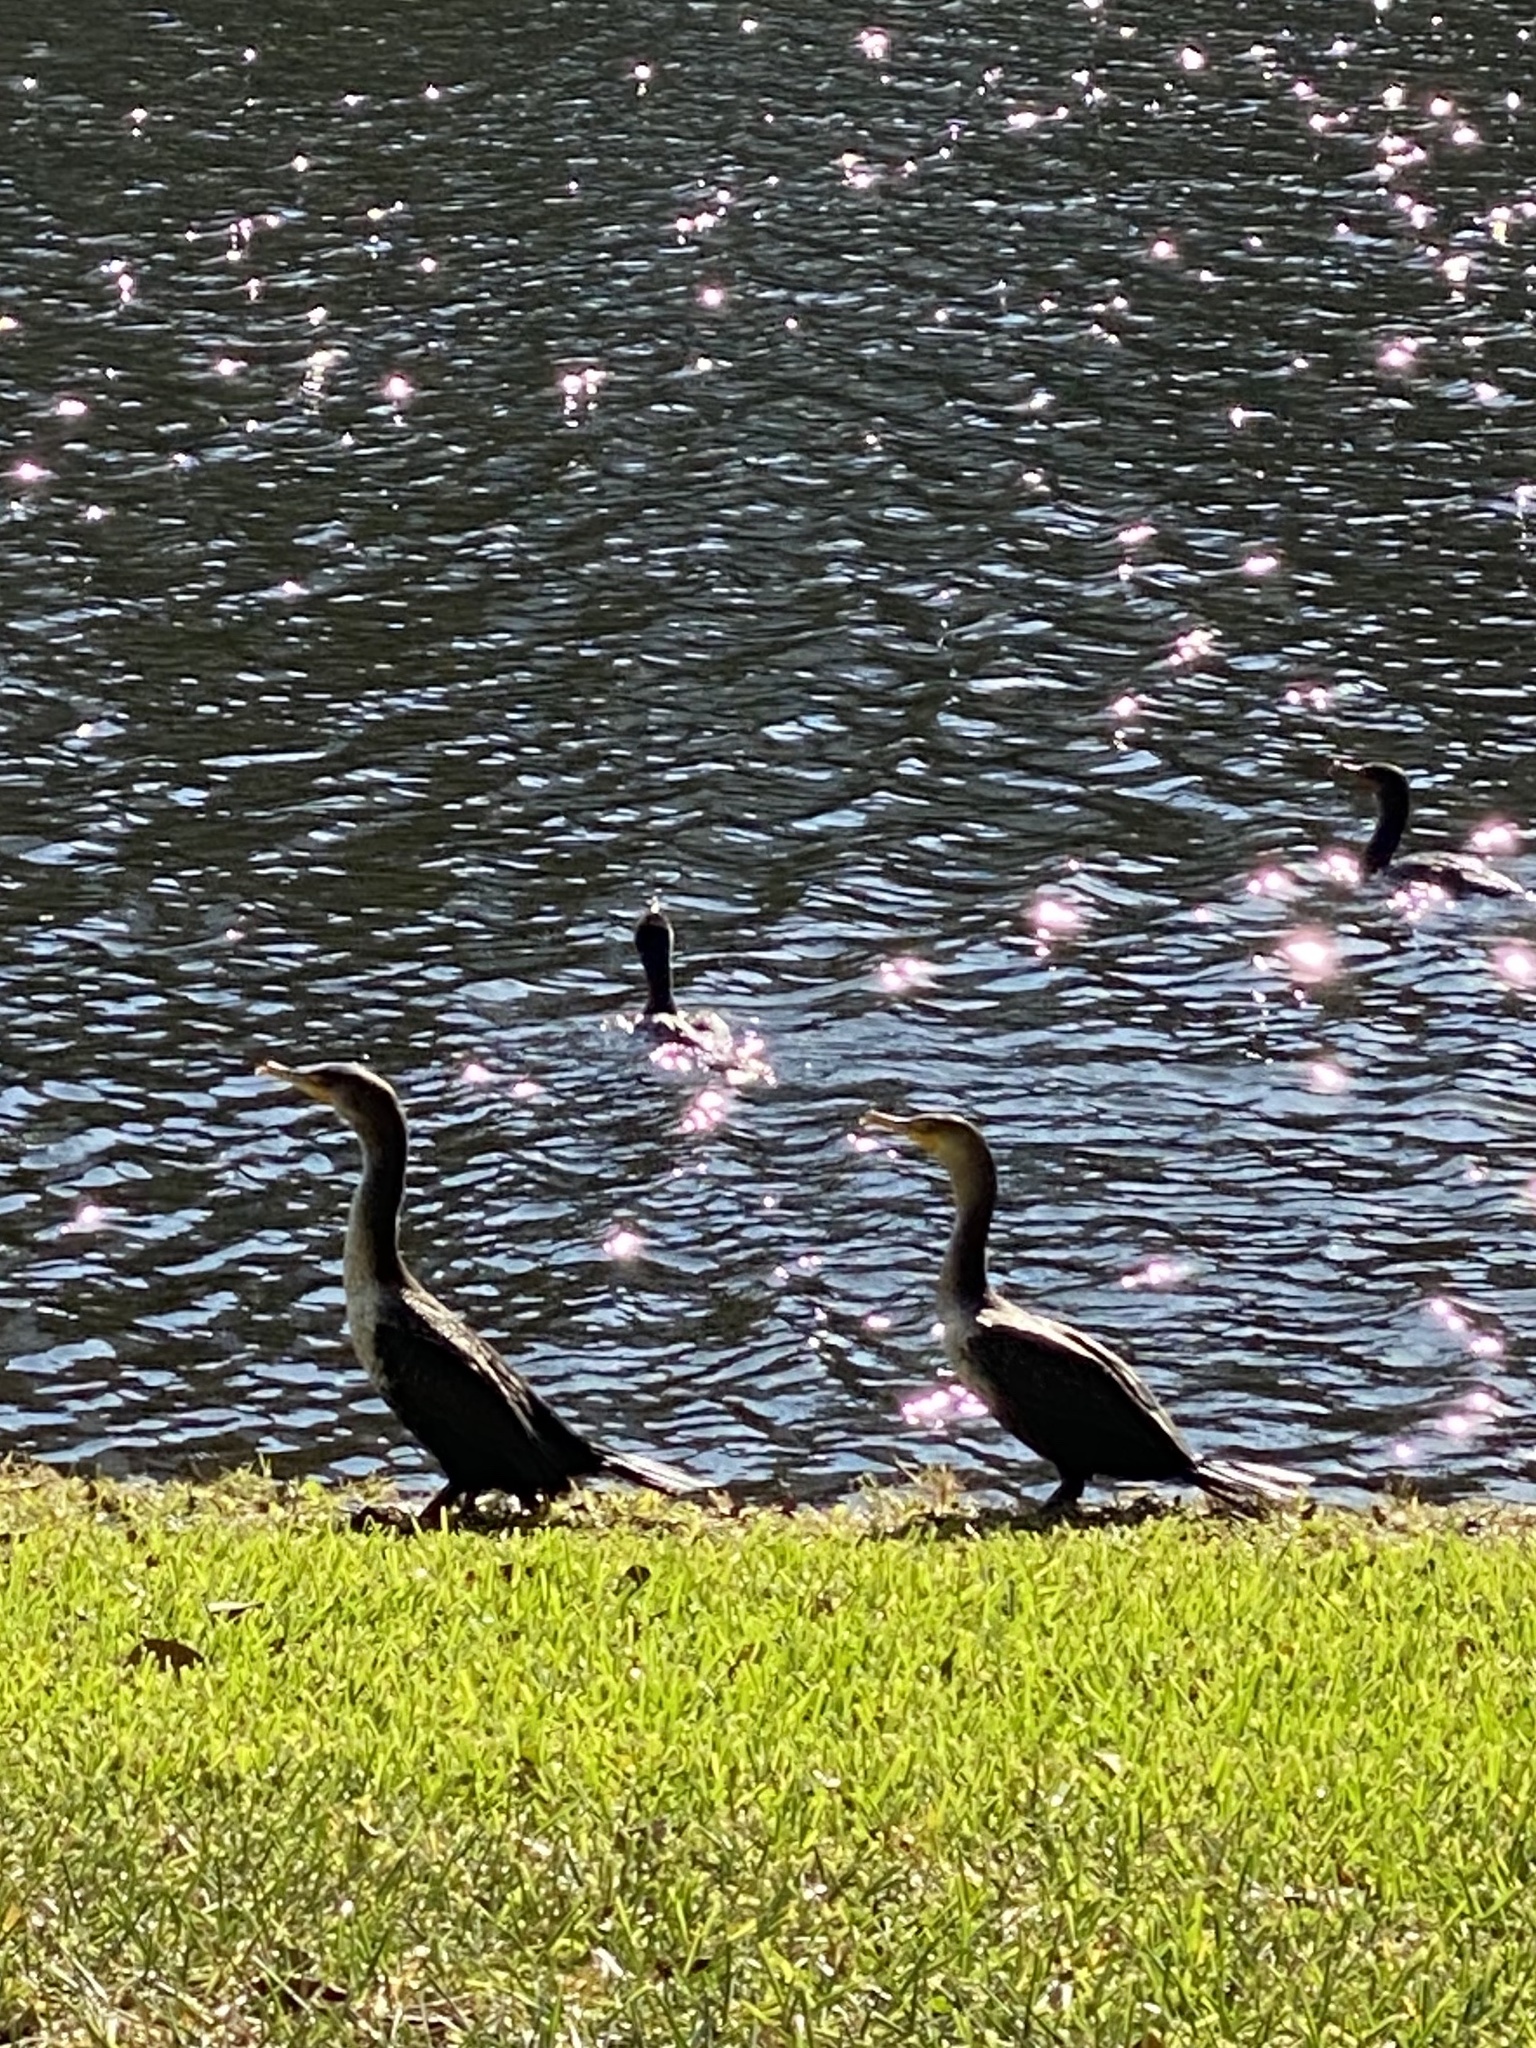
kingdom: Animalia
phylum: Chordata
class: Aves
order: Suliformes
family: Phalacrocoracidae
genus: Phalacrocorax
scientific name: Phalacrocorax auritus
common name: Double-crested cormorant
